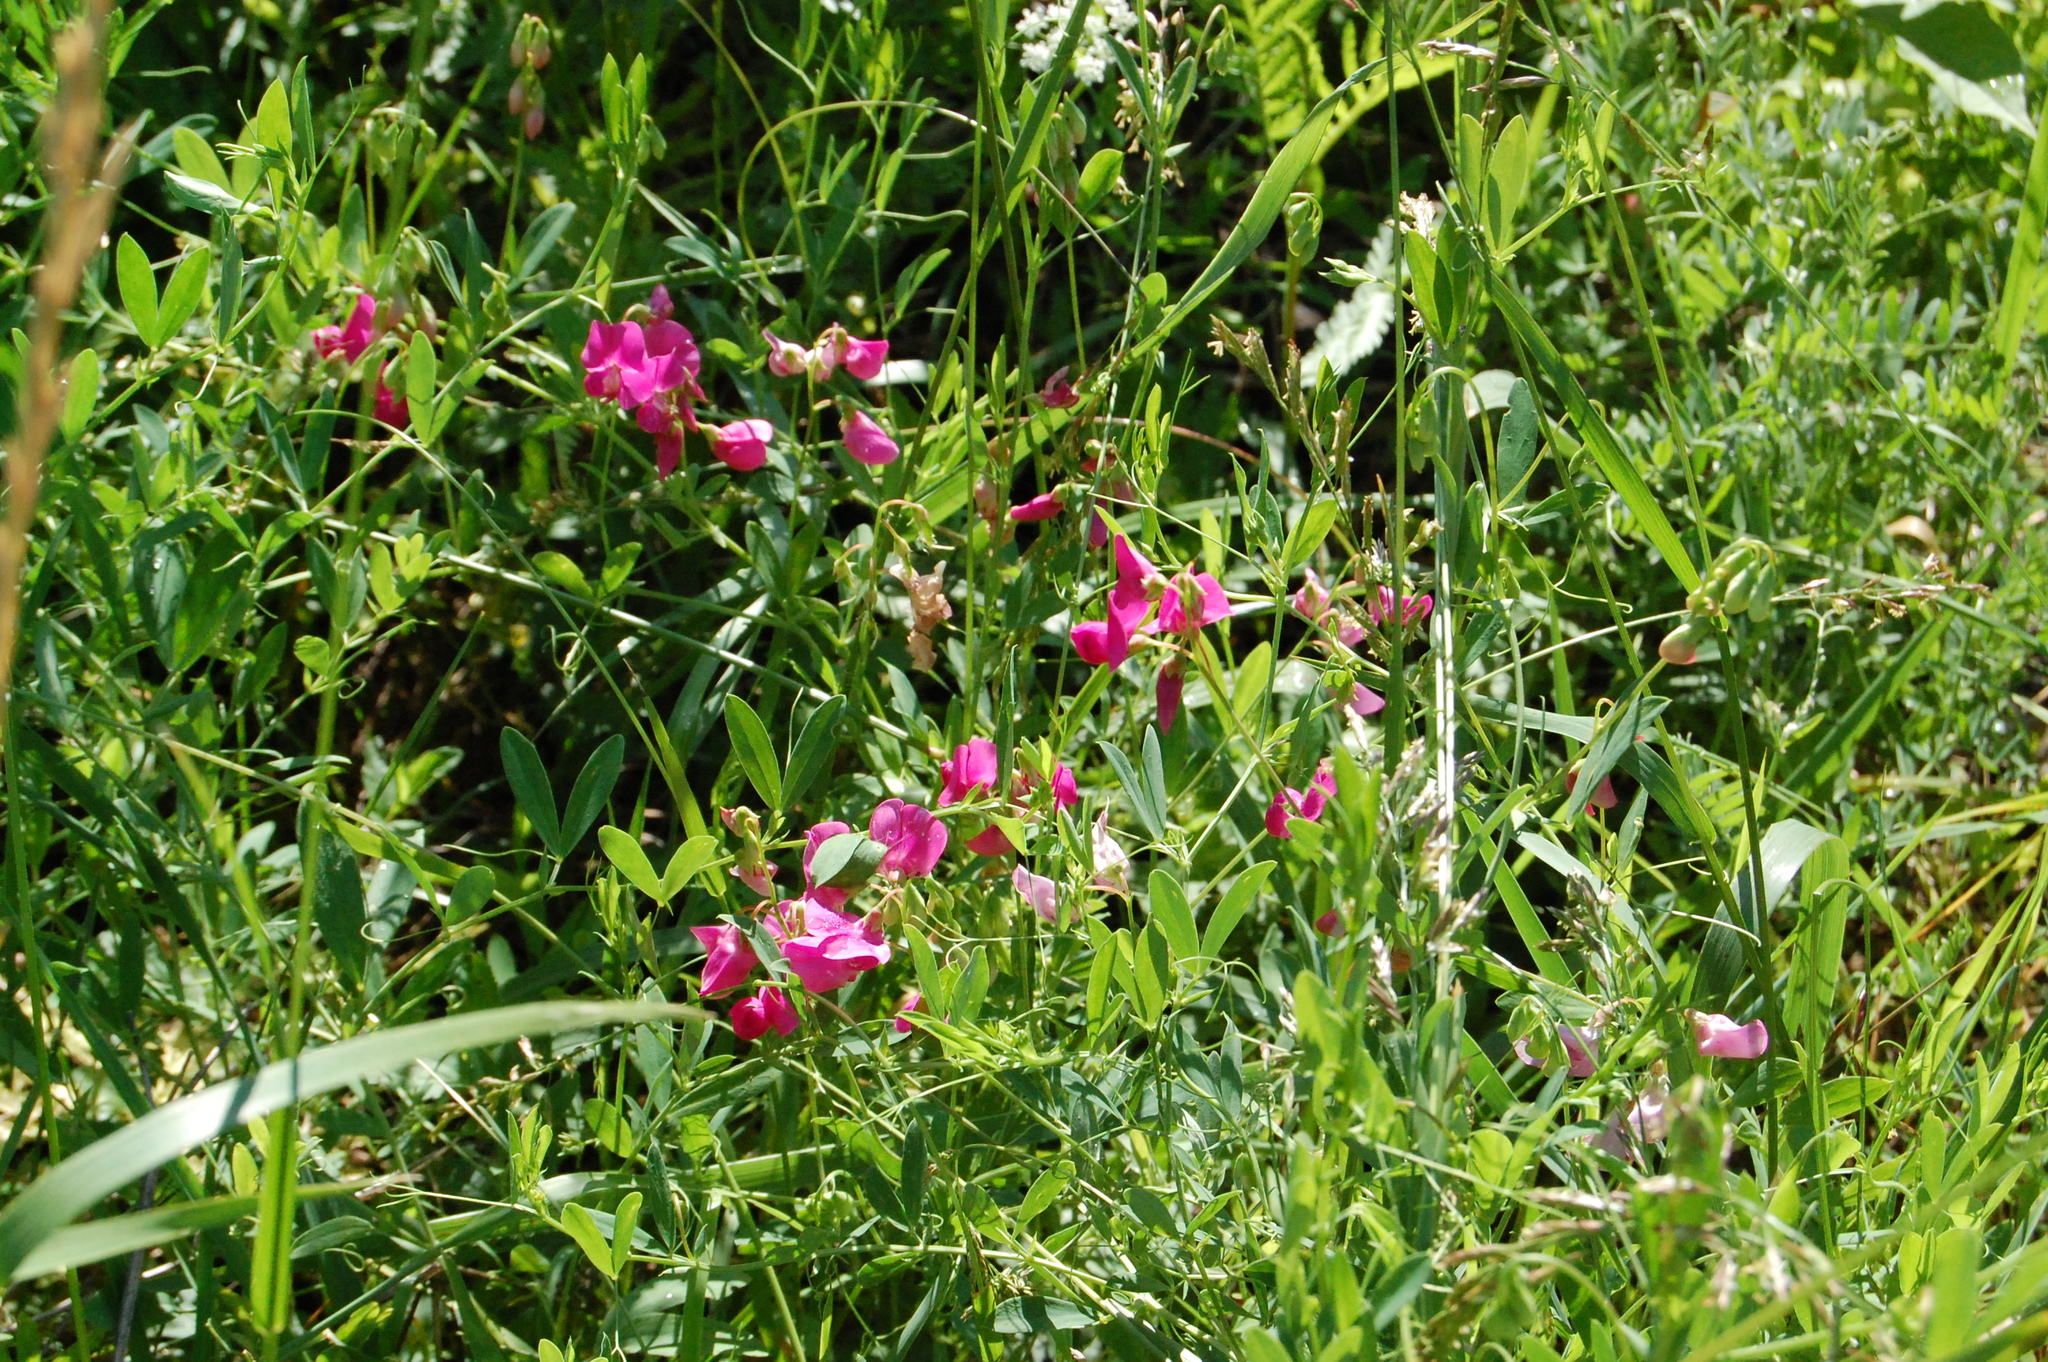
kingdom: Plantae
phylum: Tracheophyta
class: Magnoliopsida
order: Fabales
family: Fabaceae
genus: Lathyrus
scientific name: Lathyrus tuberosus
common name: Tuberous pea
